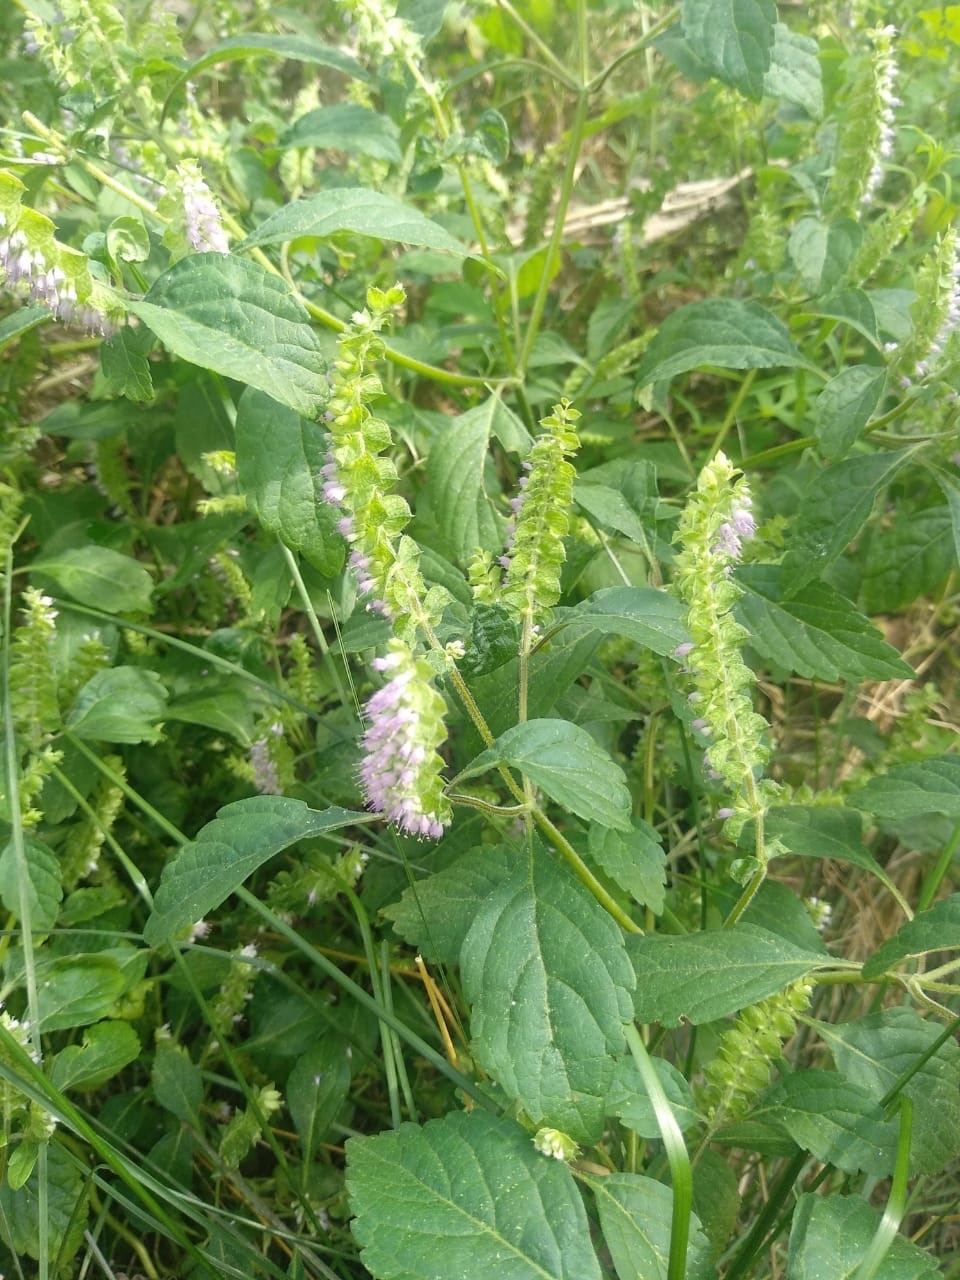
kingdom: Plantae
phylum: Tracheophyta
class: Magnoliopsida
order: Lamiales
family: Lamiaceae
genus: Elsholtzia
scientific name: Elsholtzia ciliata
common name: Ciliate elsholtzia
